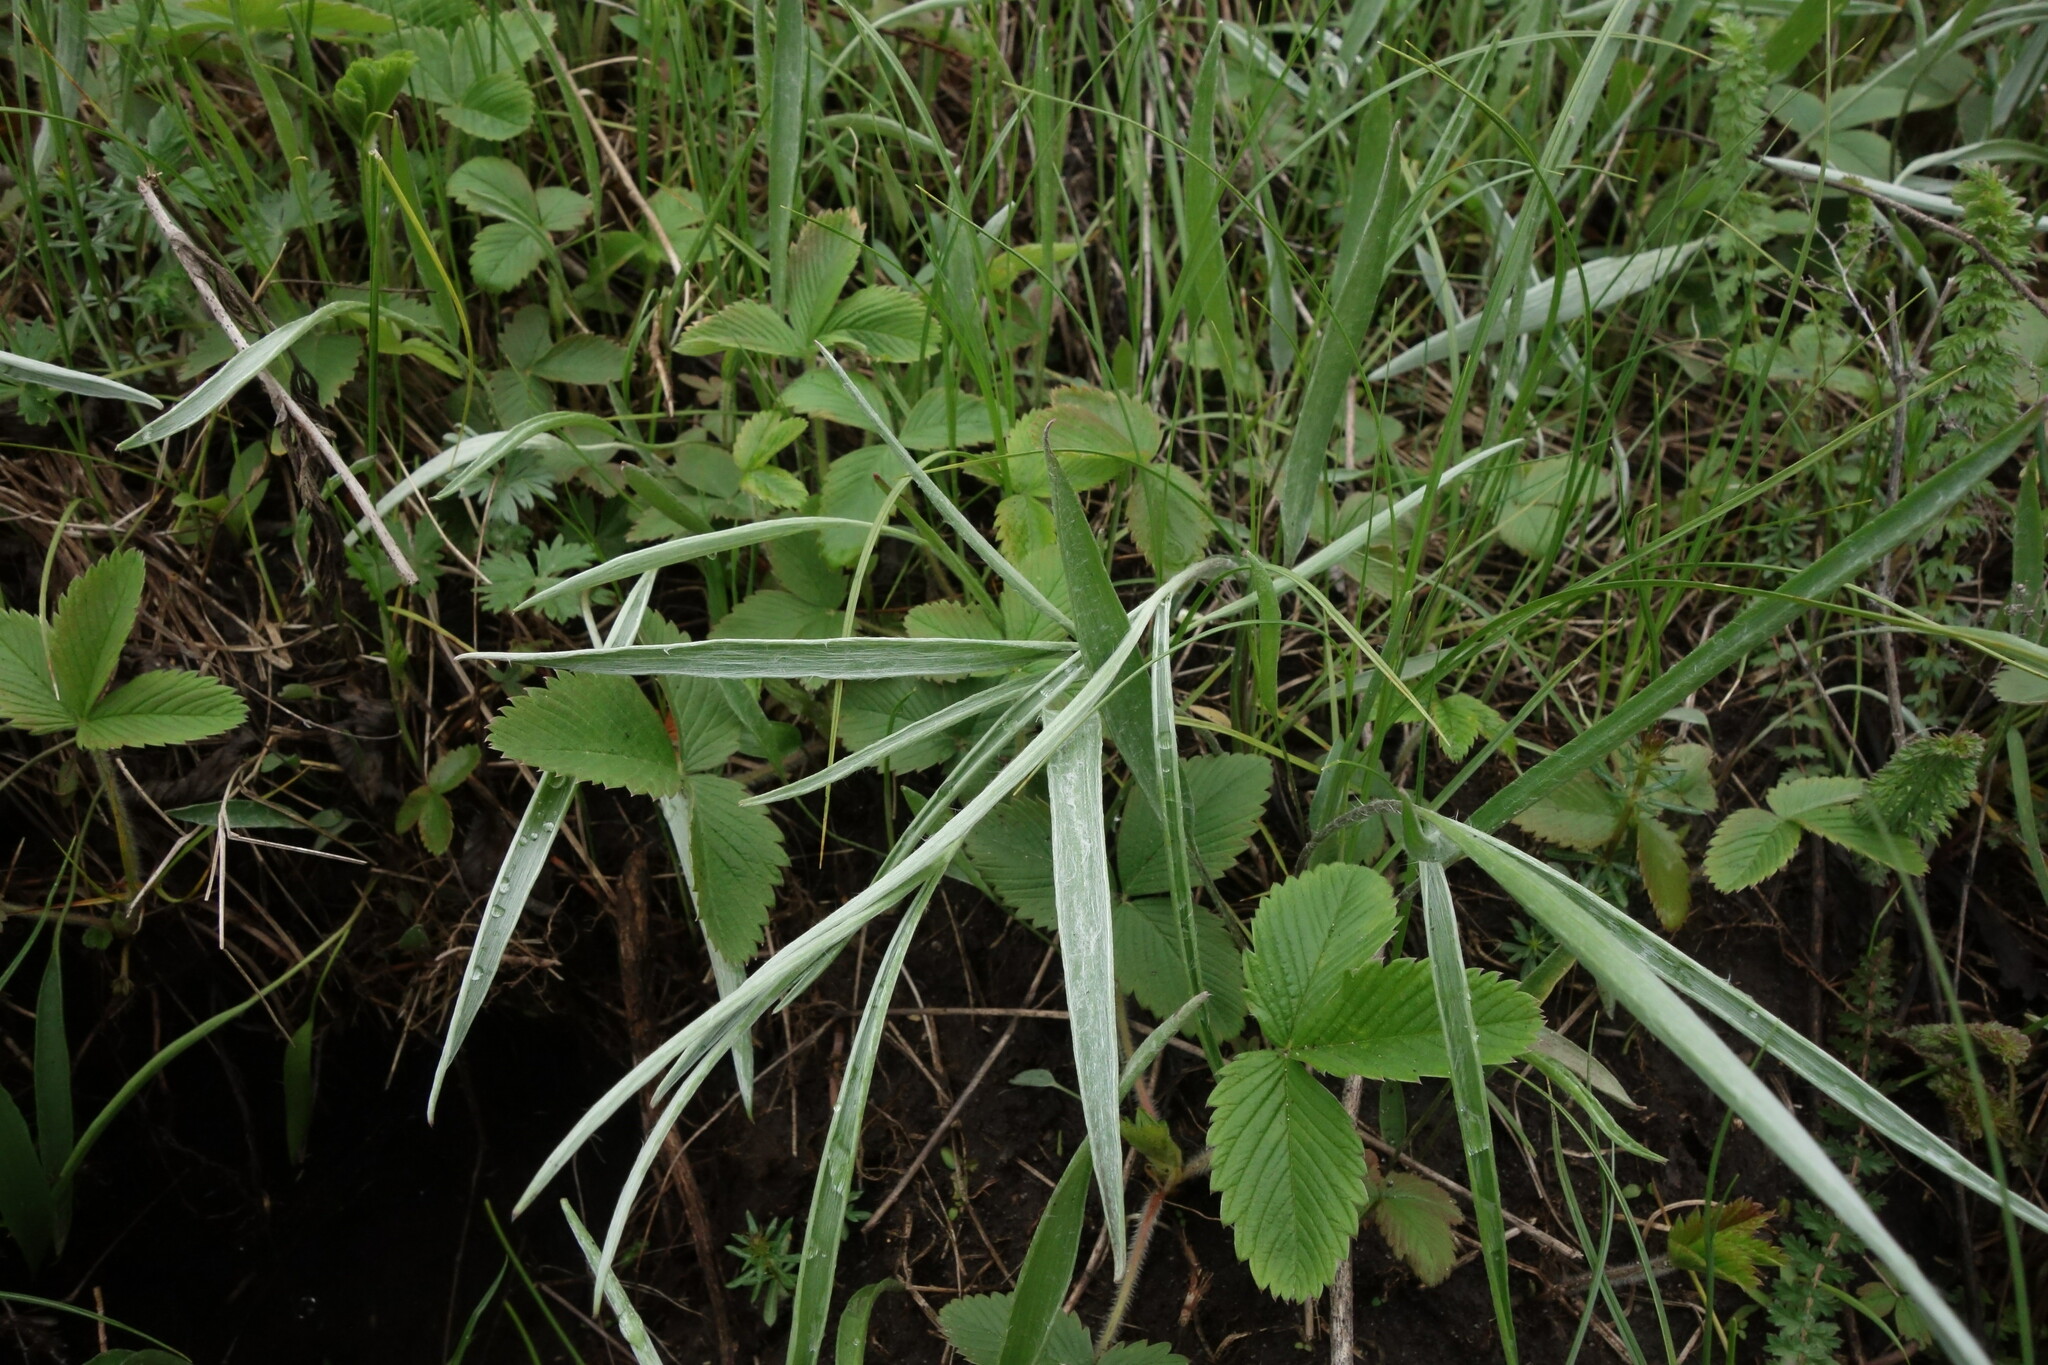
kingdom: Plantae
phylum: Tracheophyta
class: Magnoliopsida
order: Ranunculales
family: Ranunculaceae
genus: Ranunculus
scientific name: Ranunculus illyricus
